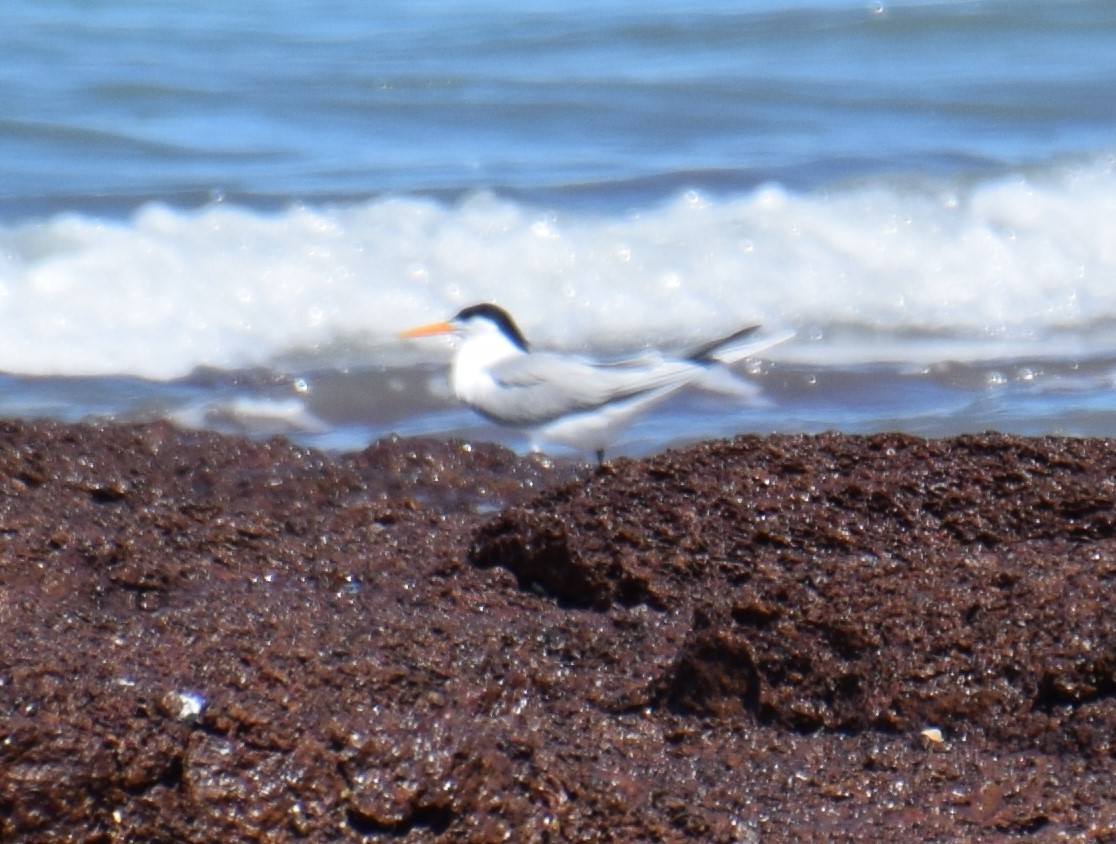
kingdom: Animalia
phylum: Chordata
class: Aves
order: Charadriiformes
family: Laridae
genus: Thalasseus
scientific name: Thalasseus bengalensis
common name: Lesser crested tern
